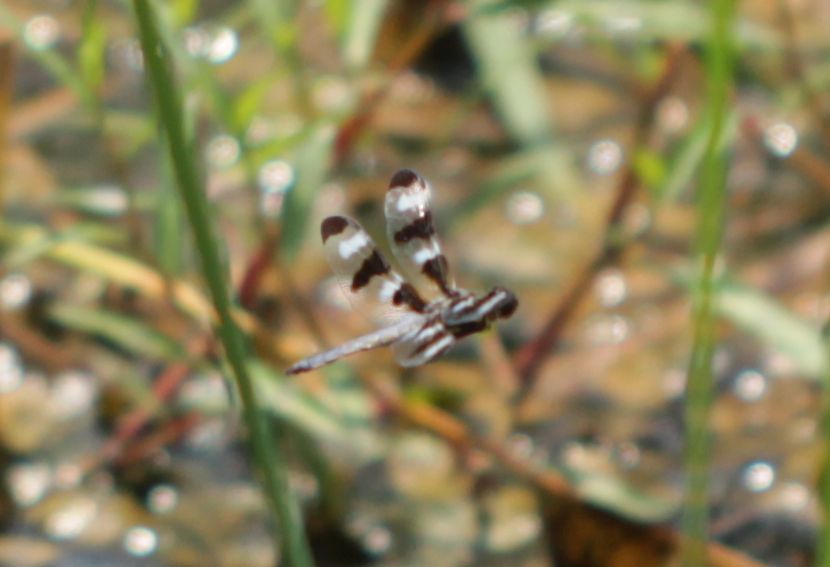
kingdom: Animalia
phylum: Arthropoda
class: Insecta
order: Odonata
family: Libellulidae
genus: Libellula
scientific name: Libellula pulchella
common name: Twelve-spotted skimmer
